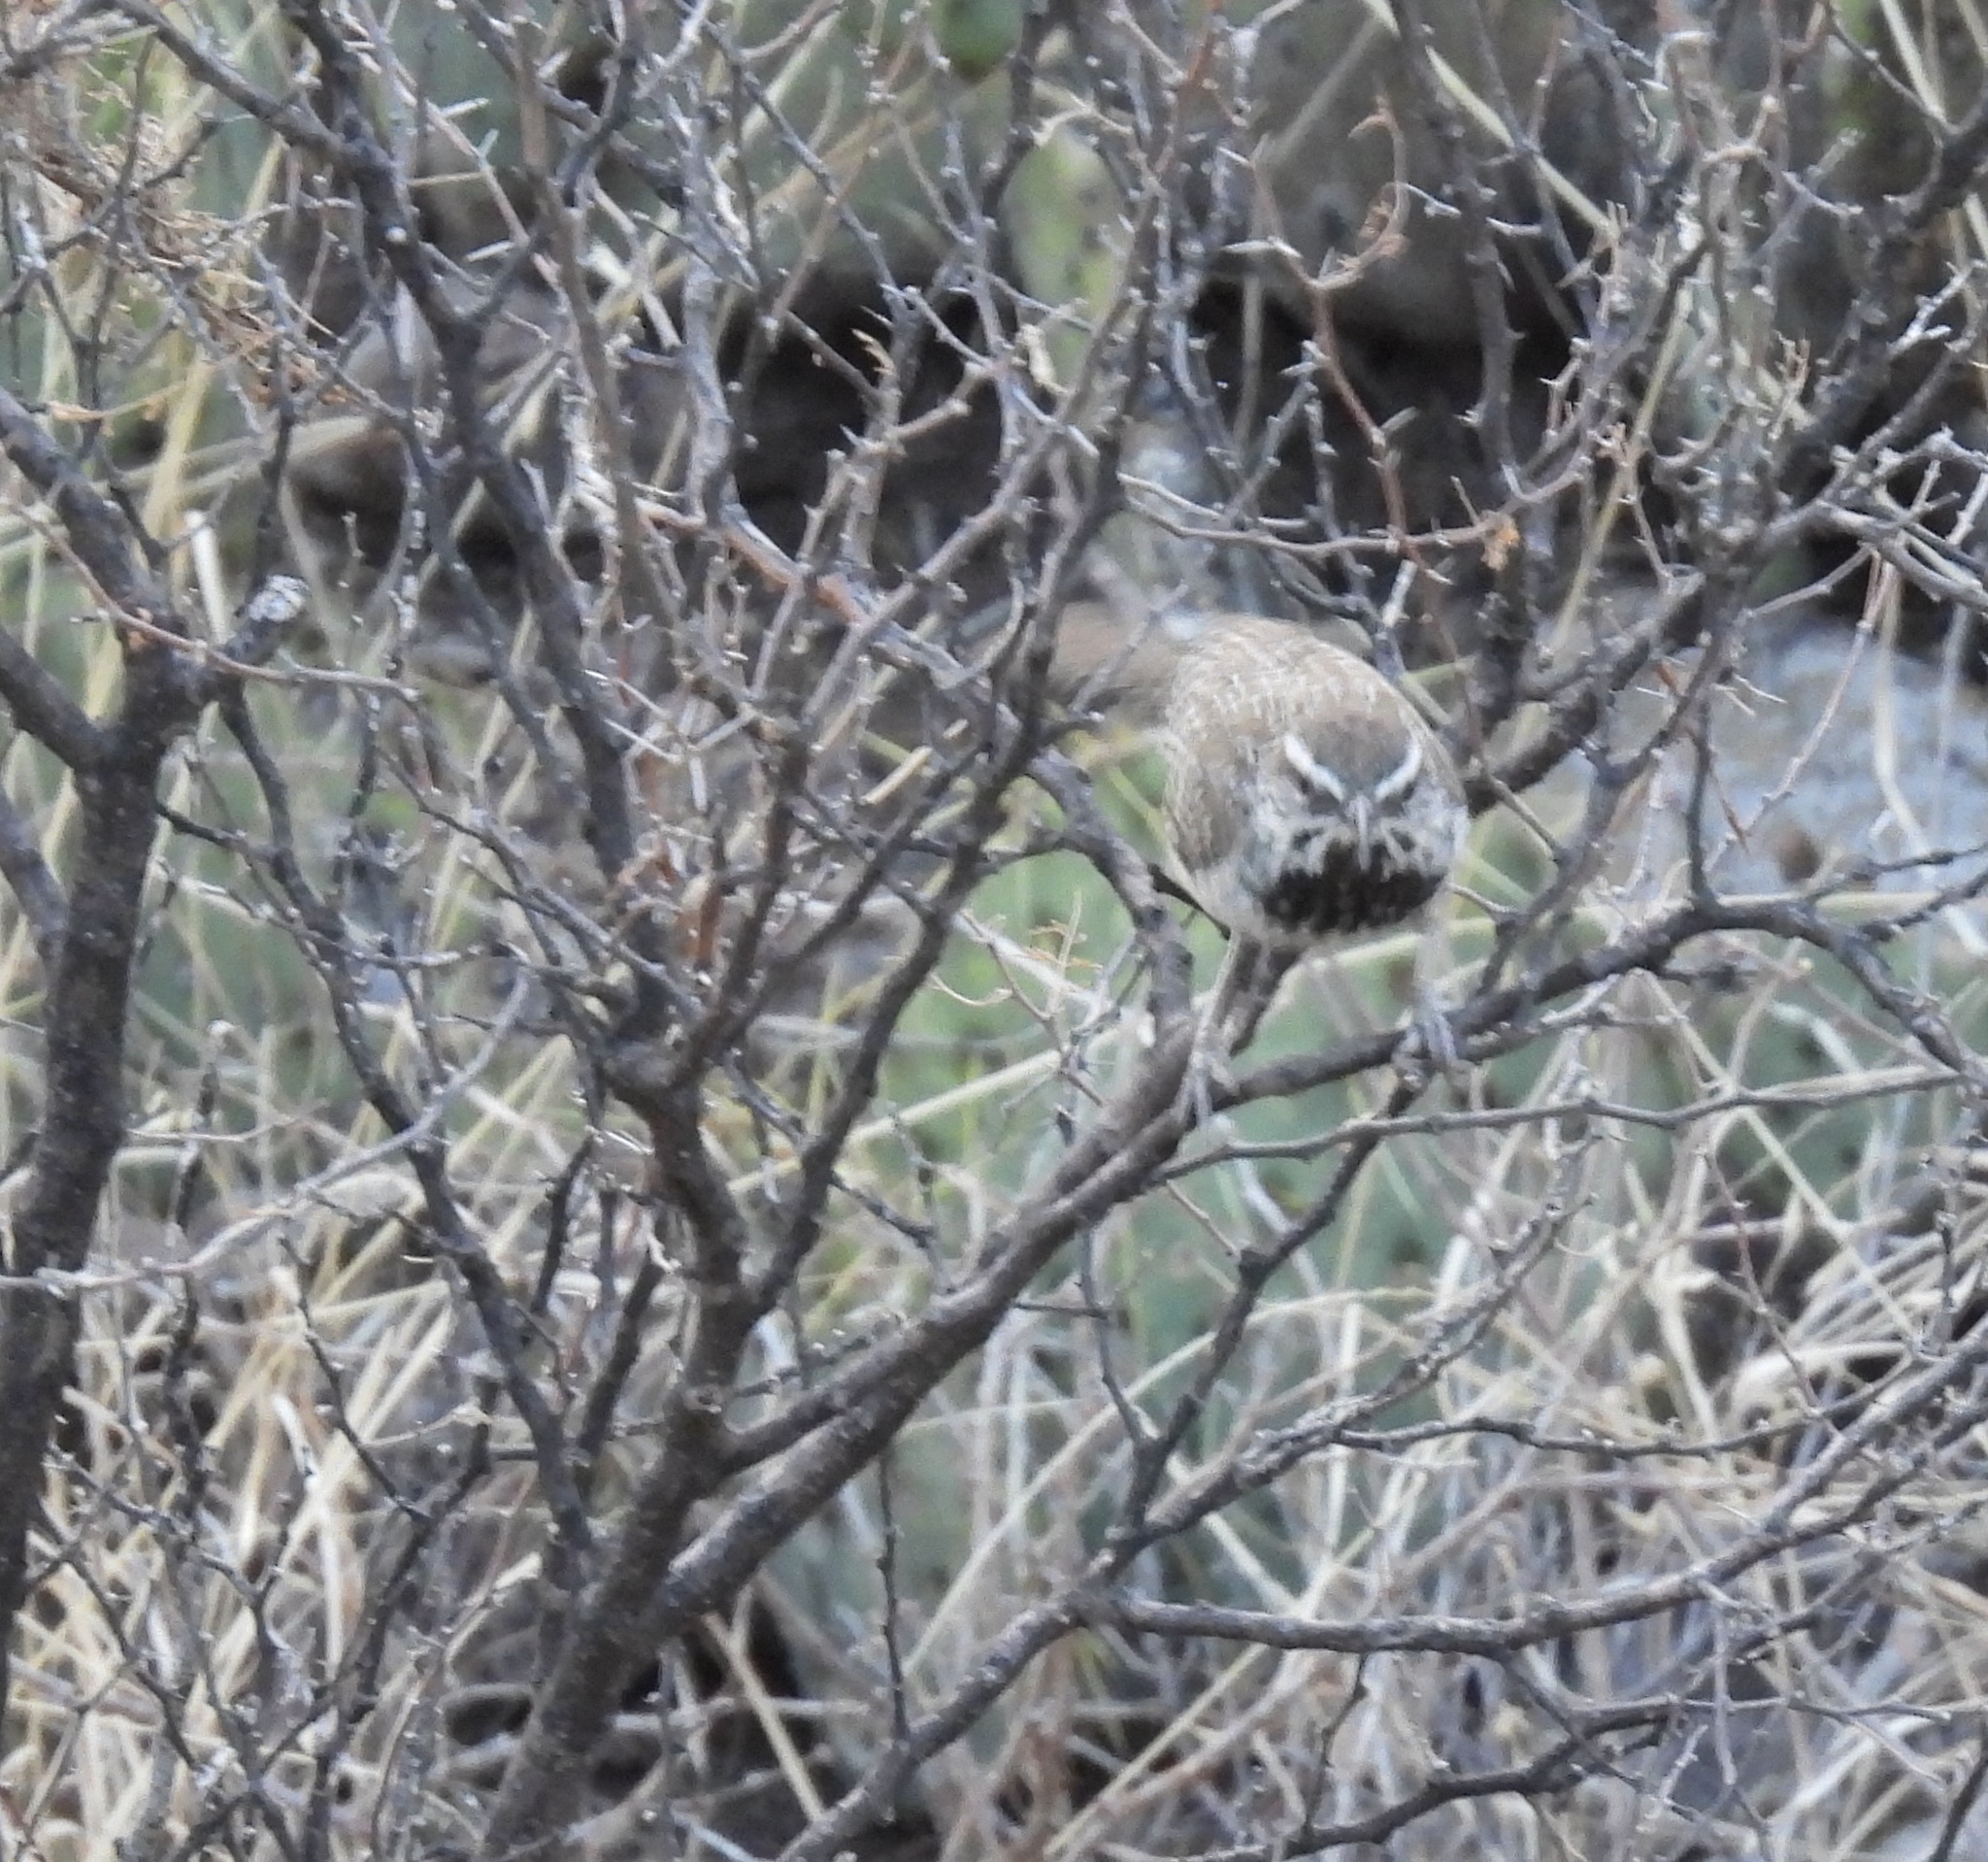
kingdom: Animalia
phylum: Chordata
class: Aves
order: Passeriformes
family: Troglodytidae
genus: Campylorhynchus
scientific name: Campylorhynchus brunneicapillus
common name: Cactus wren
